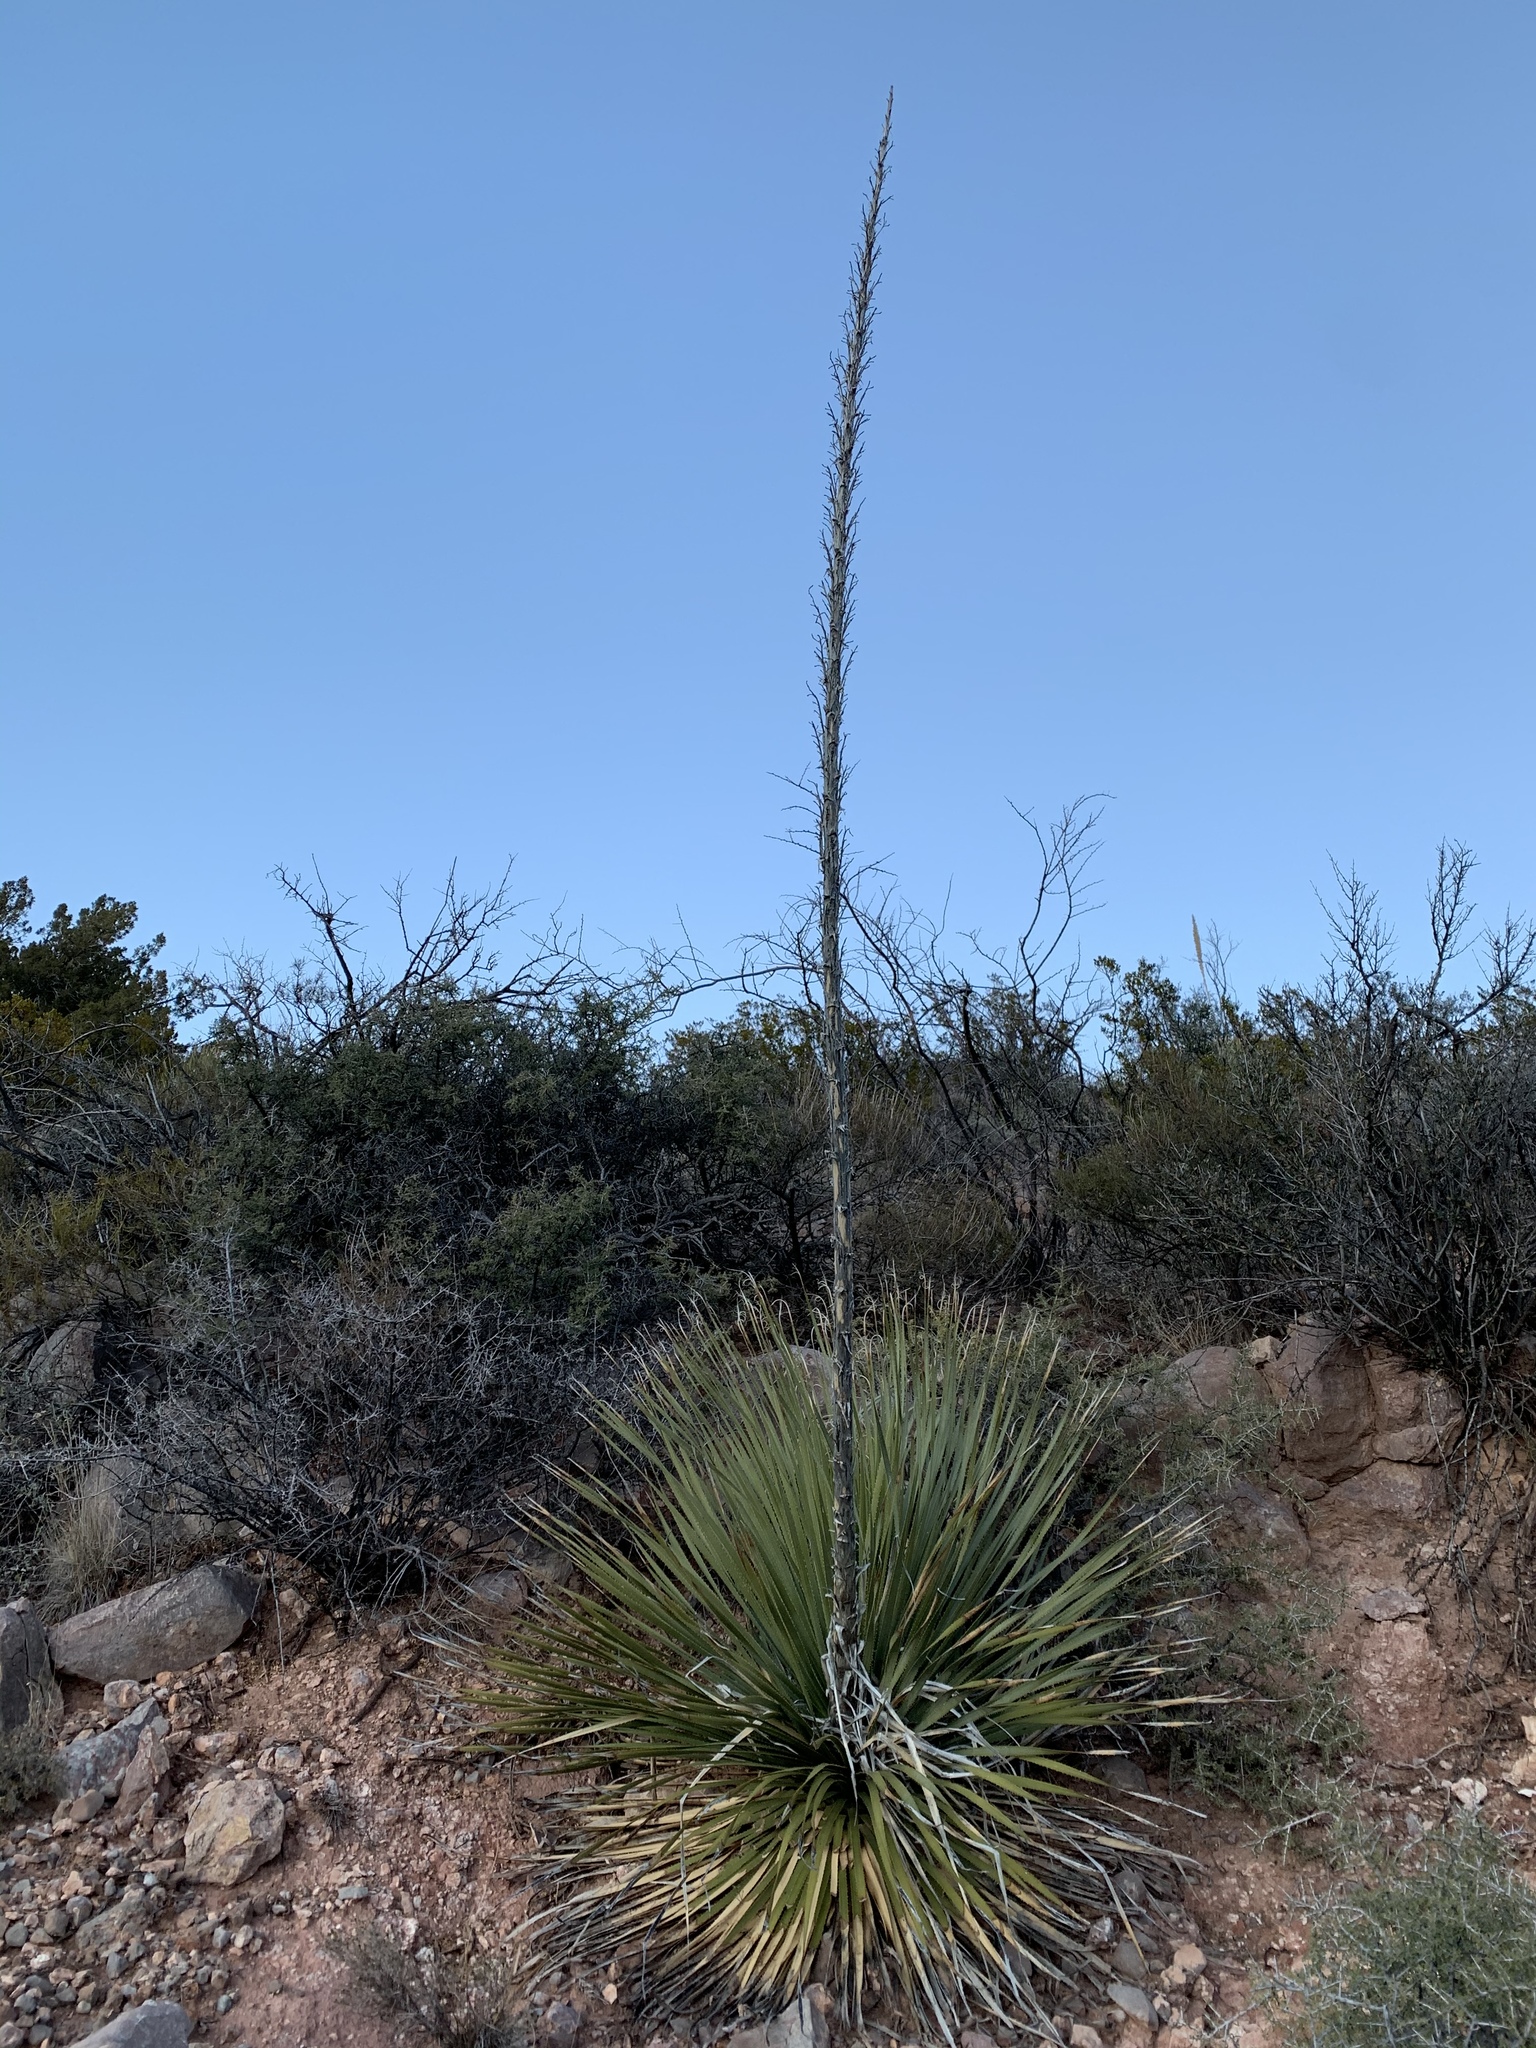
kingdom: Plantae
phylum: Tracheophyta
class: Liliopsida
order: Asparagales
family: Asparagaceae
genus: Dasylirion
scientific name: Dasylirion wheeleri
